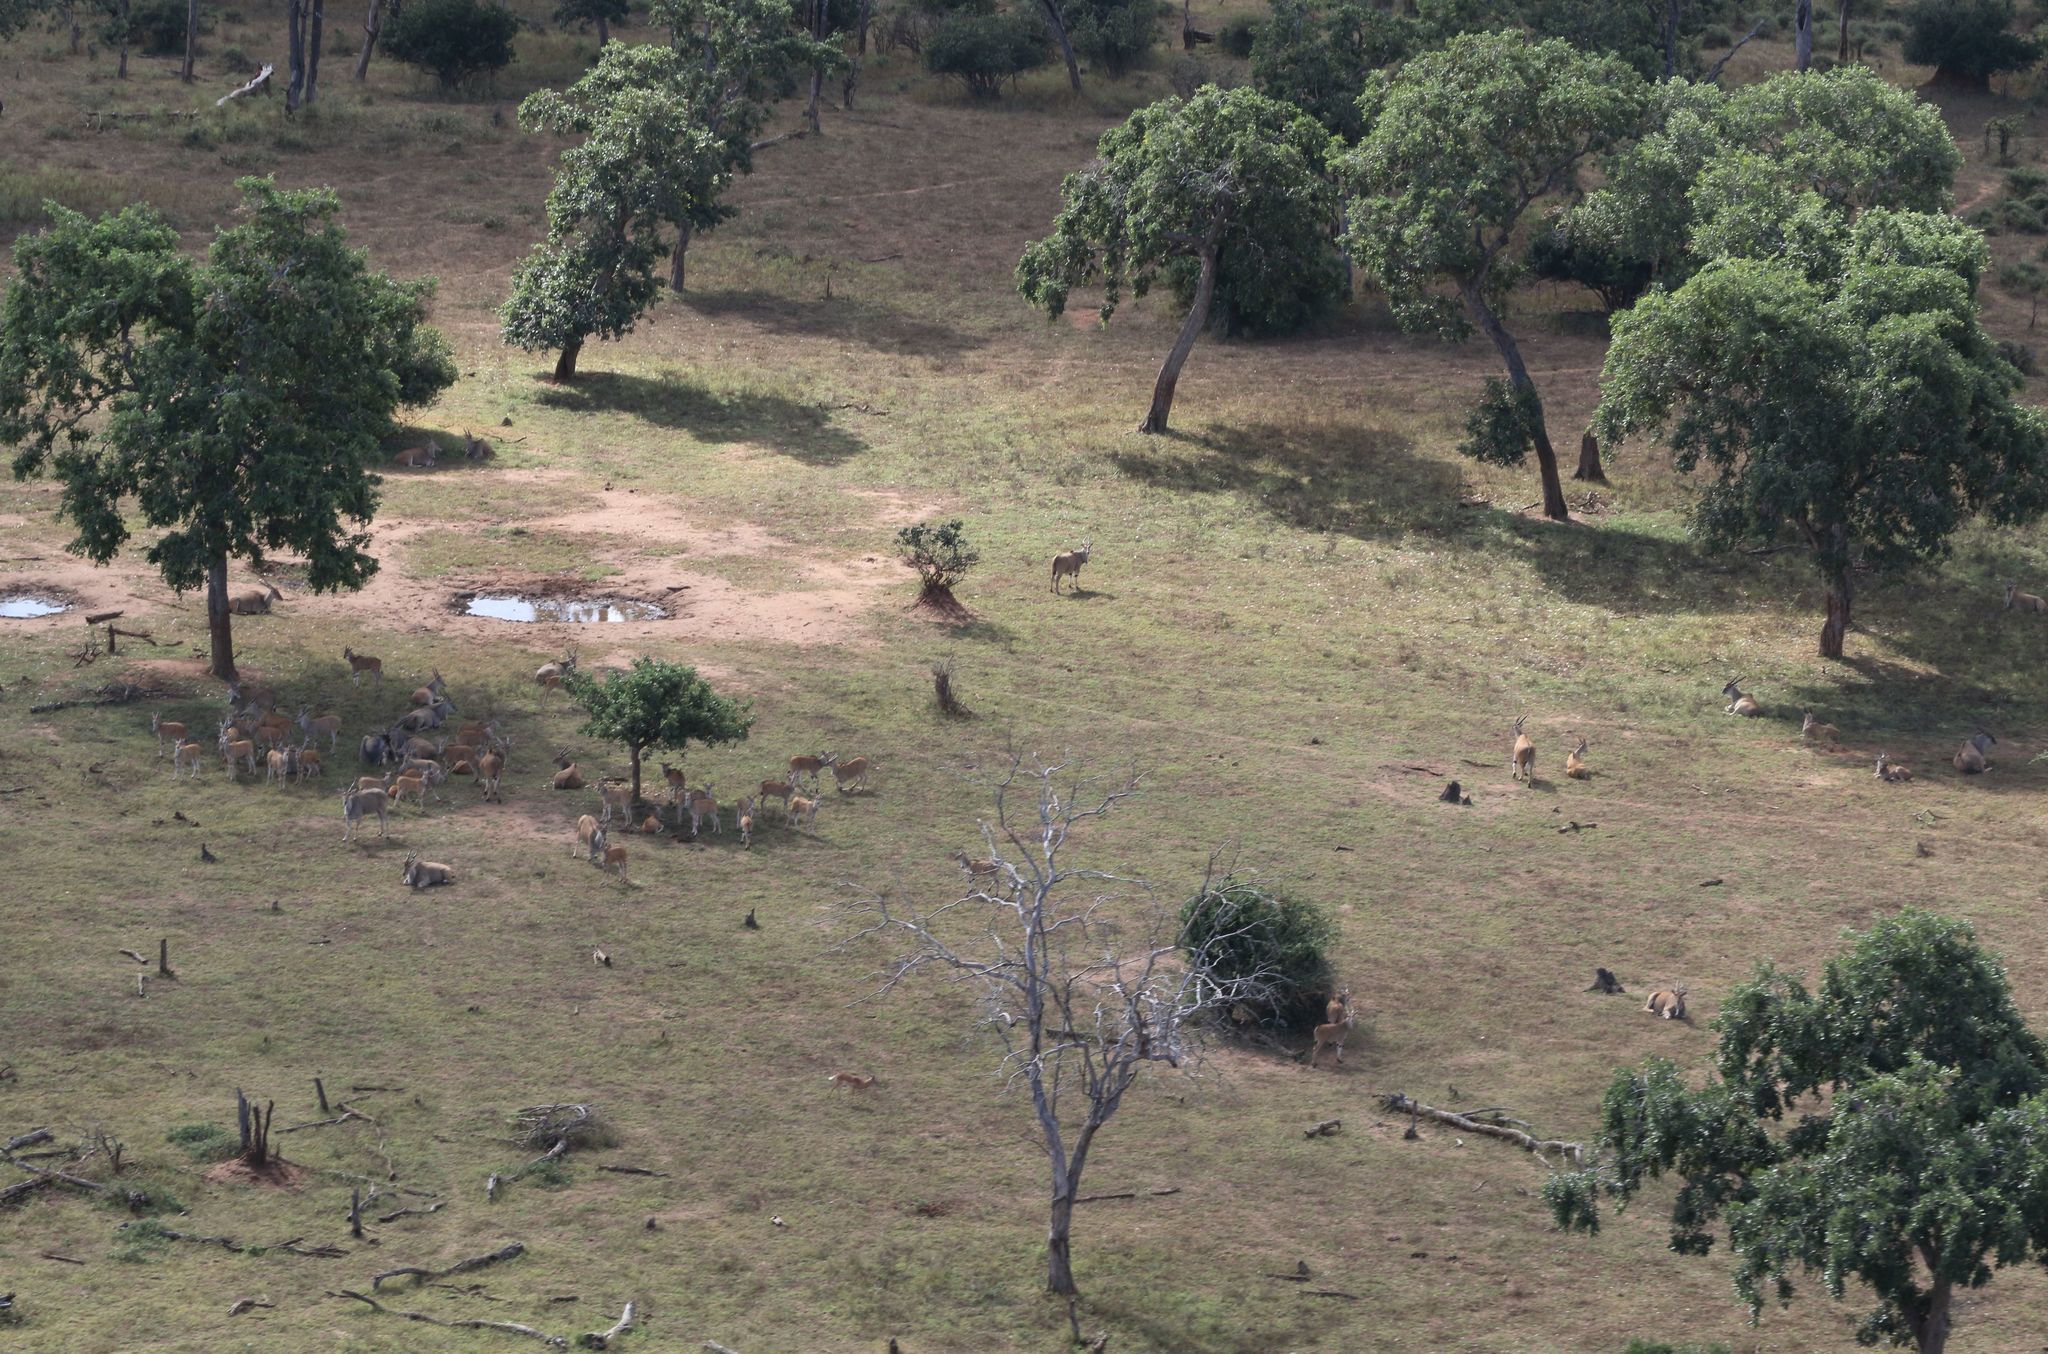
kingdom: Animalia
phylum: Chordata
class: Mammalia
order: Artiodactyla
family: Bovidae
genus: Taurotragus
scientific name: Taurotragus oryx
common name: Common eland
